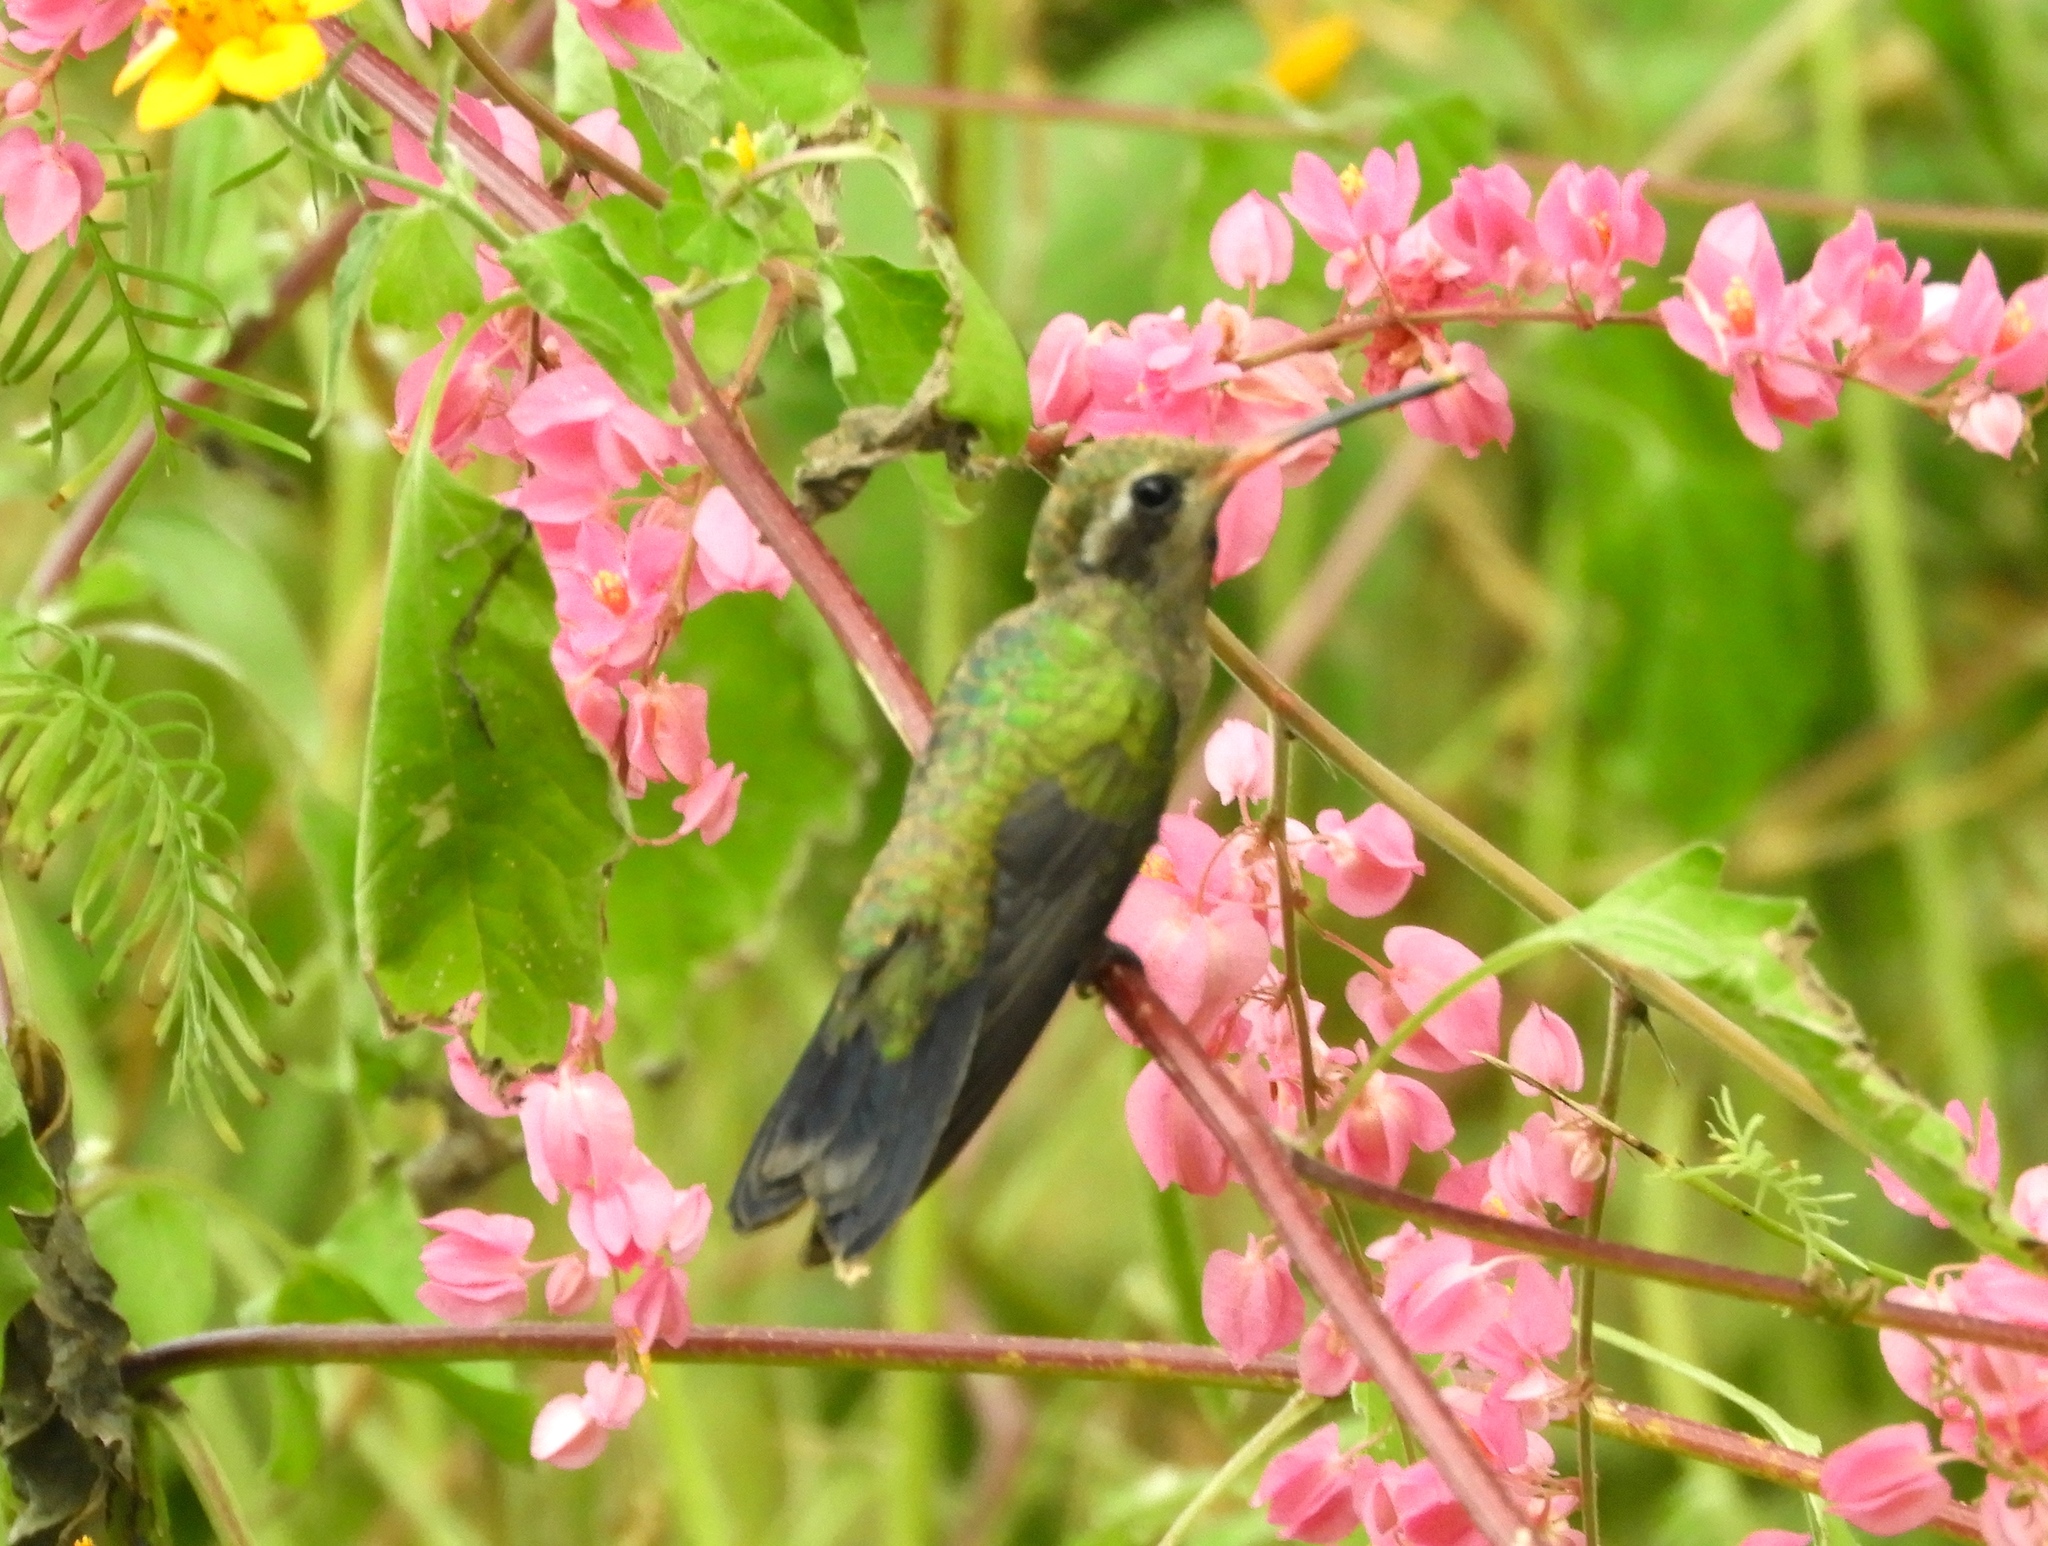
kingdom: Animalia
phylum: Chordata
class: Aves
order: Apodiformes
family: Trochilidae
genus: Cynanthus
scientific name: Cynanthus latirostris
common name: Broad-billed hummingbird
